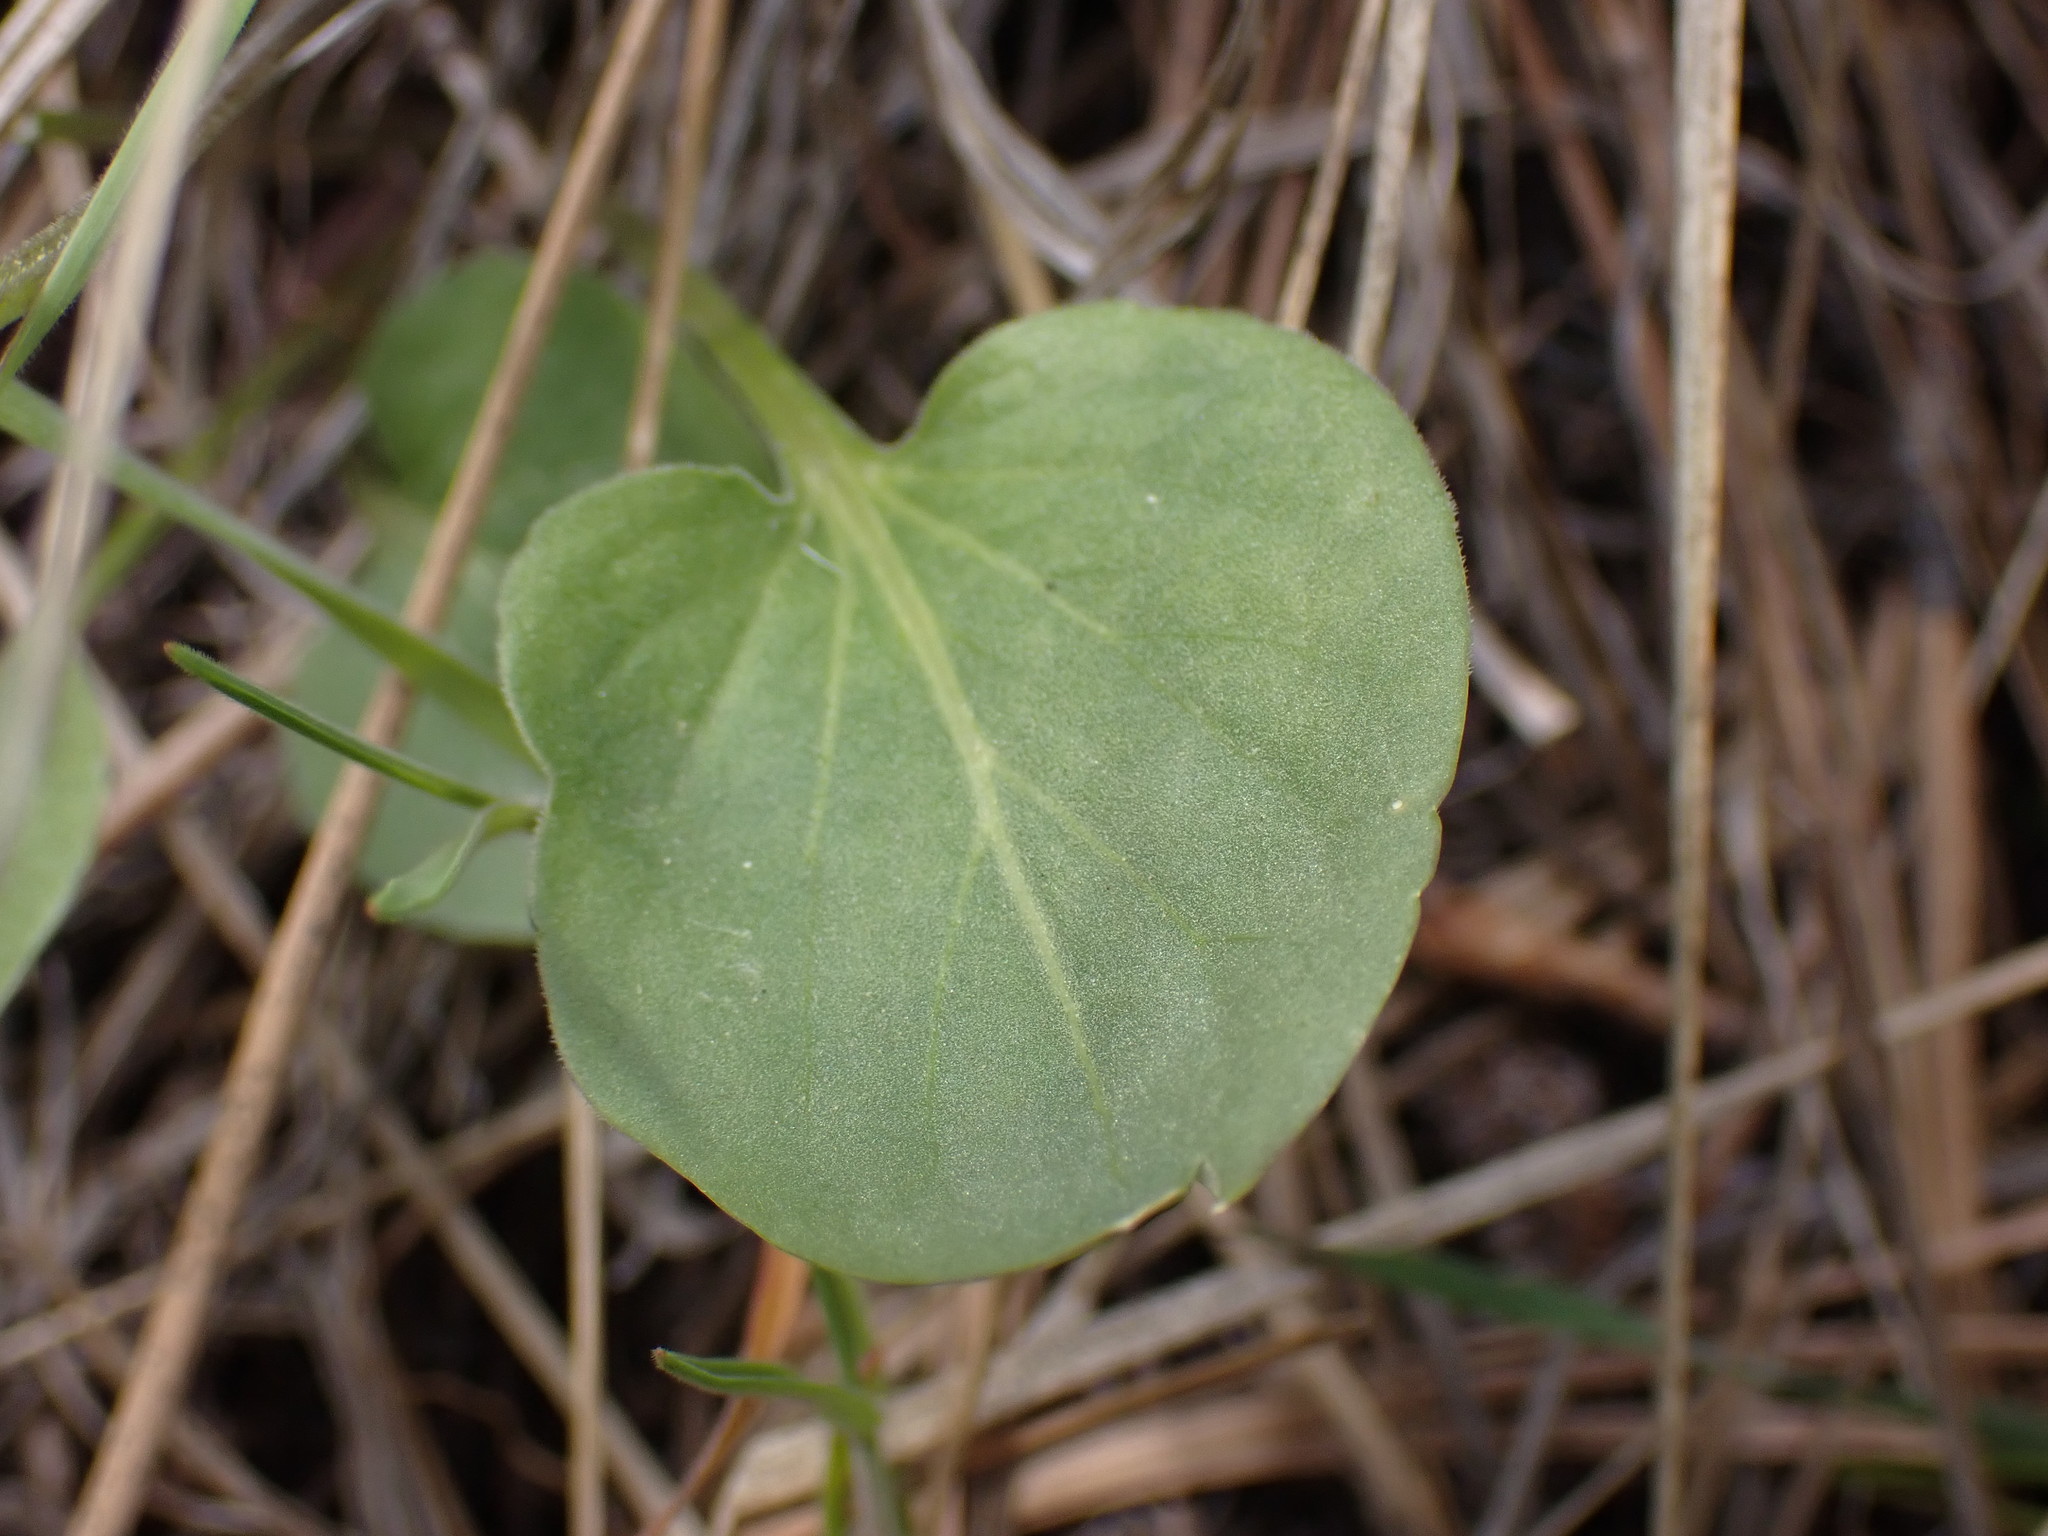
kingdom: Plantae
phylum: Tracheophyta
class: Magnoliopsida
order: Malpighiales
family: Violaceae
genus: Viola
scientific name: Viola vallicola
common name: Valley violet
